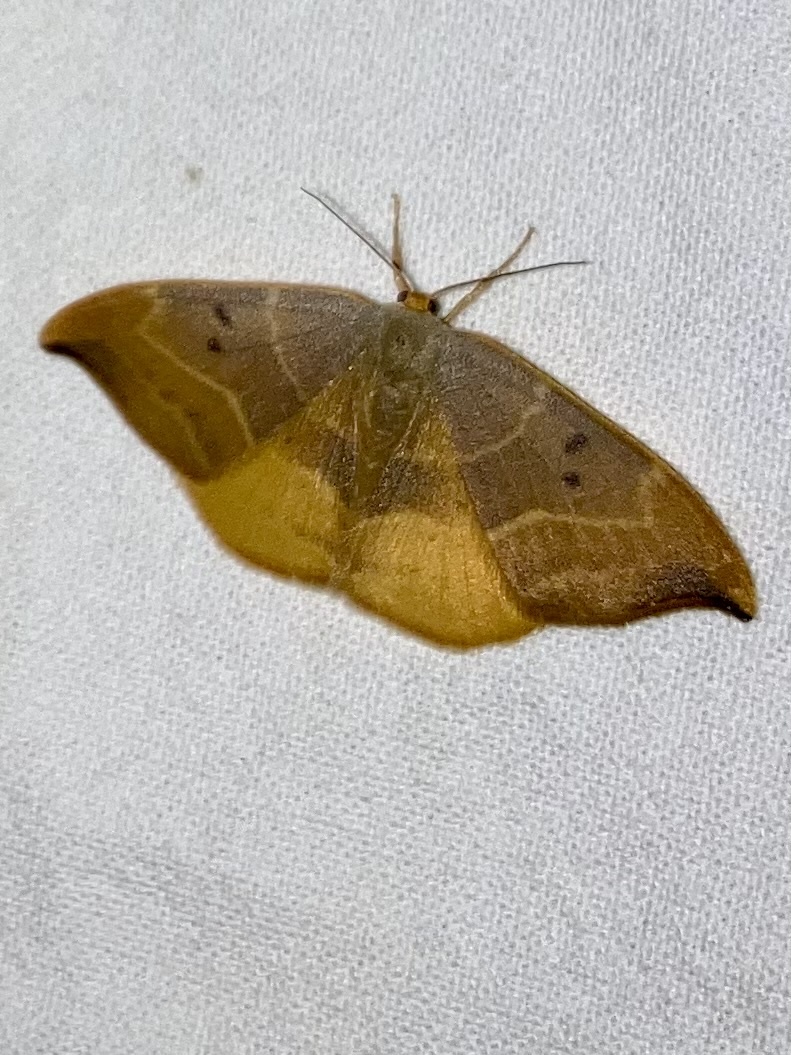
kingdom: Animalia
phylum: Arthropoda
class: Insecta
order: Lepidoptera
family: Drepanidae
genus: Watsonalla
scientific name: Watsonalla binaria
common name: Oak hook-tip
